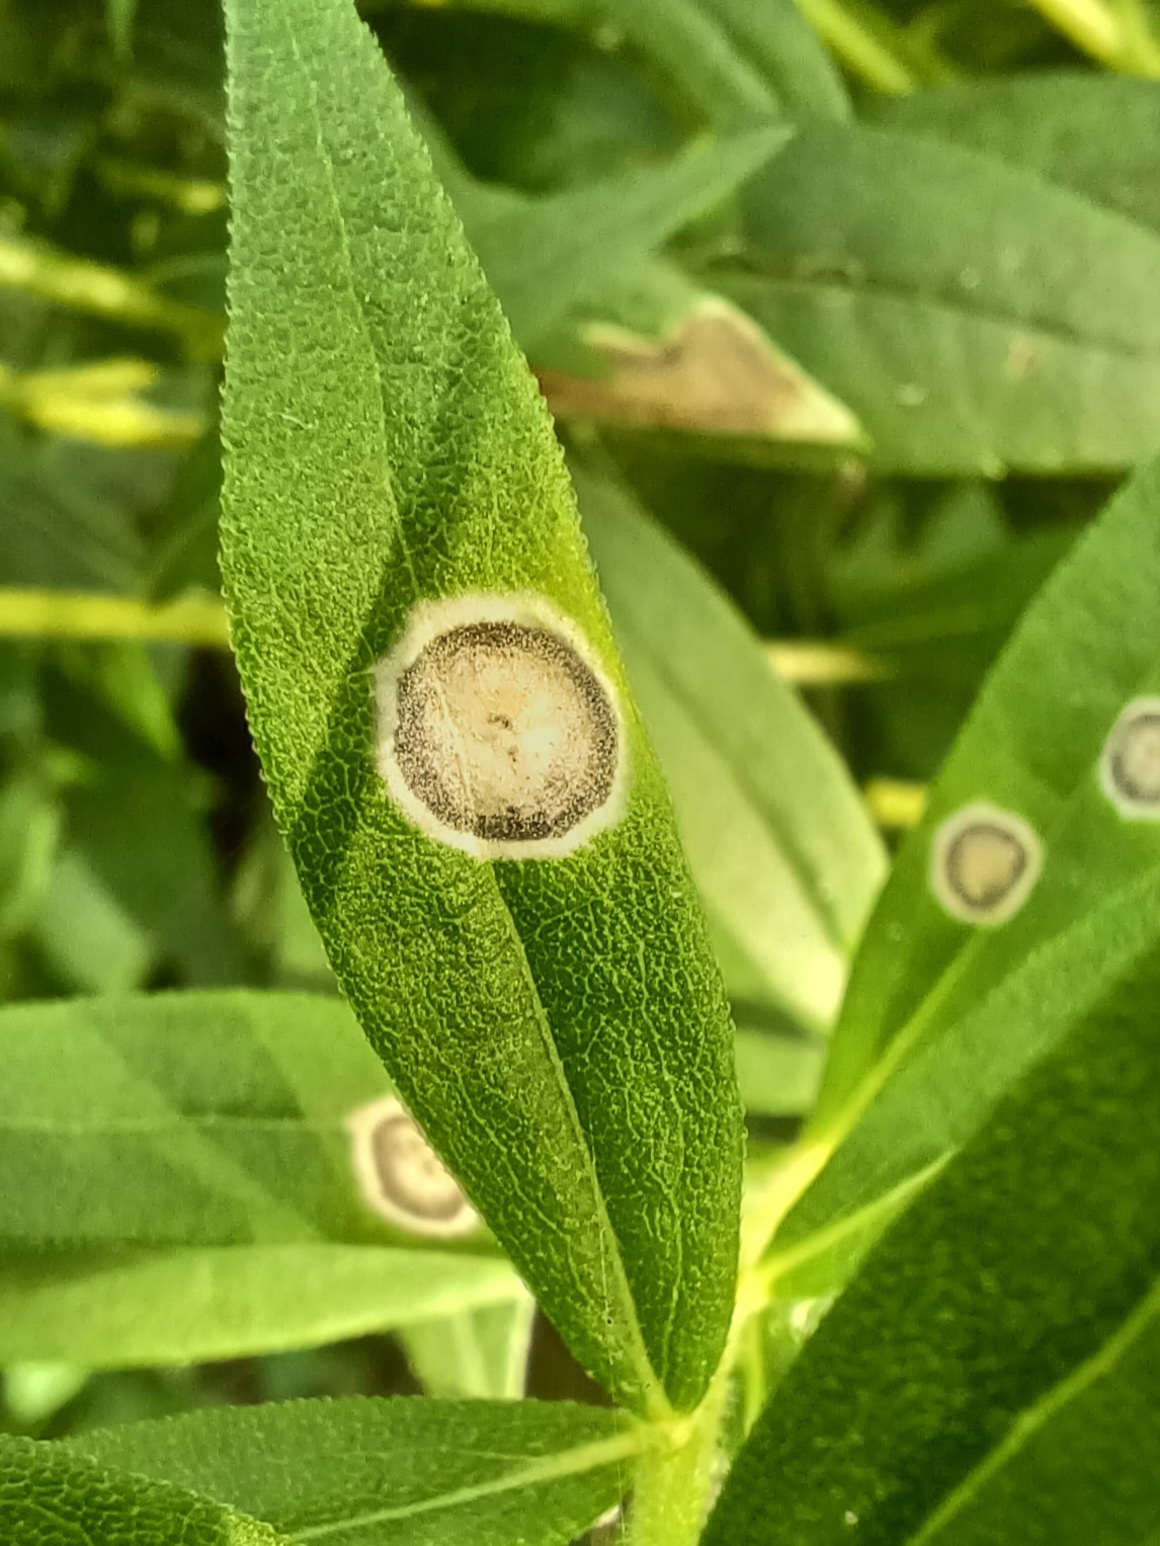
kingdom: Animalia
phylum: Arthropoda
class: Insecta
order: Diptera
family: Cecidomyiidae
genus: Asteromyia
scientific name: Asteromyia carbonifera
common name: Carbonifera goldenrod gall midge
